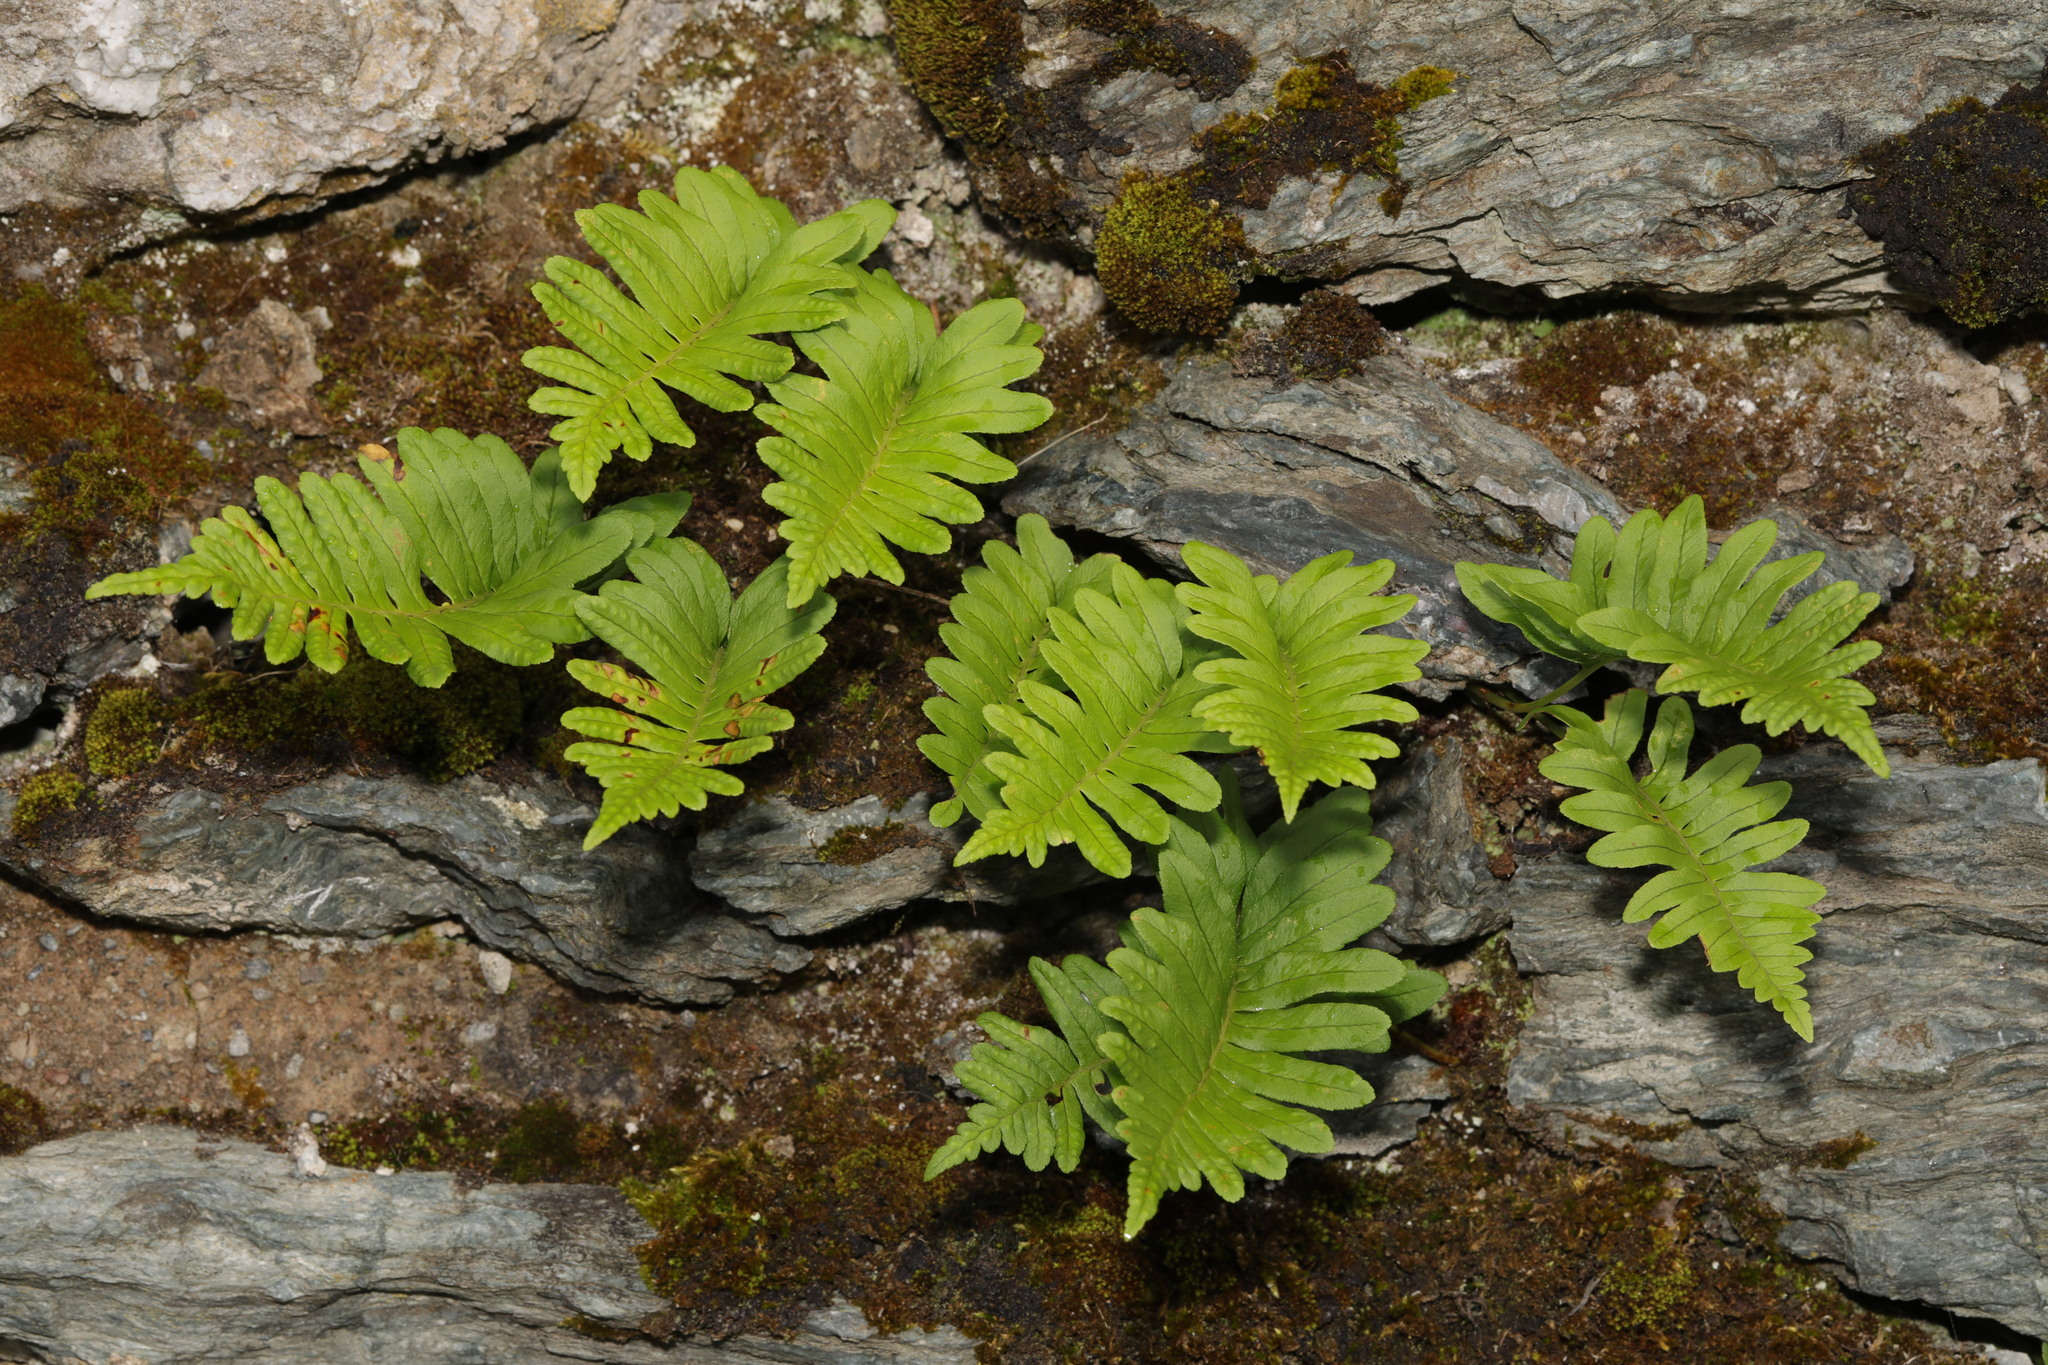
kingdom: Plantae
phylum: Tracheophyta
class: Polypodiopsida
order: Polypodiales
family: Polypodiaceae
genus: Polypodium
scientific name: Polypodium vulgare
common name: Common polypody
